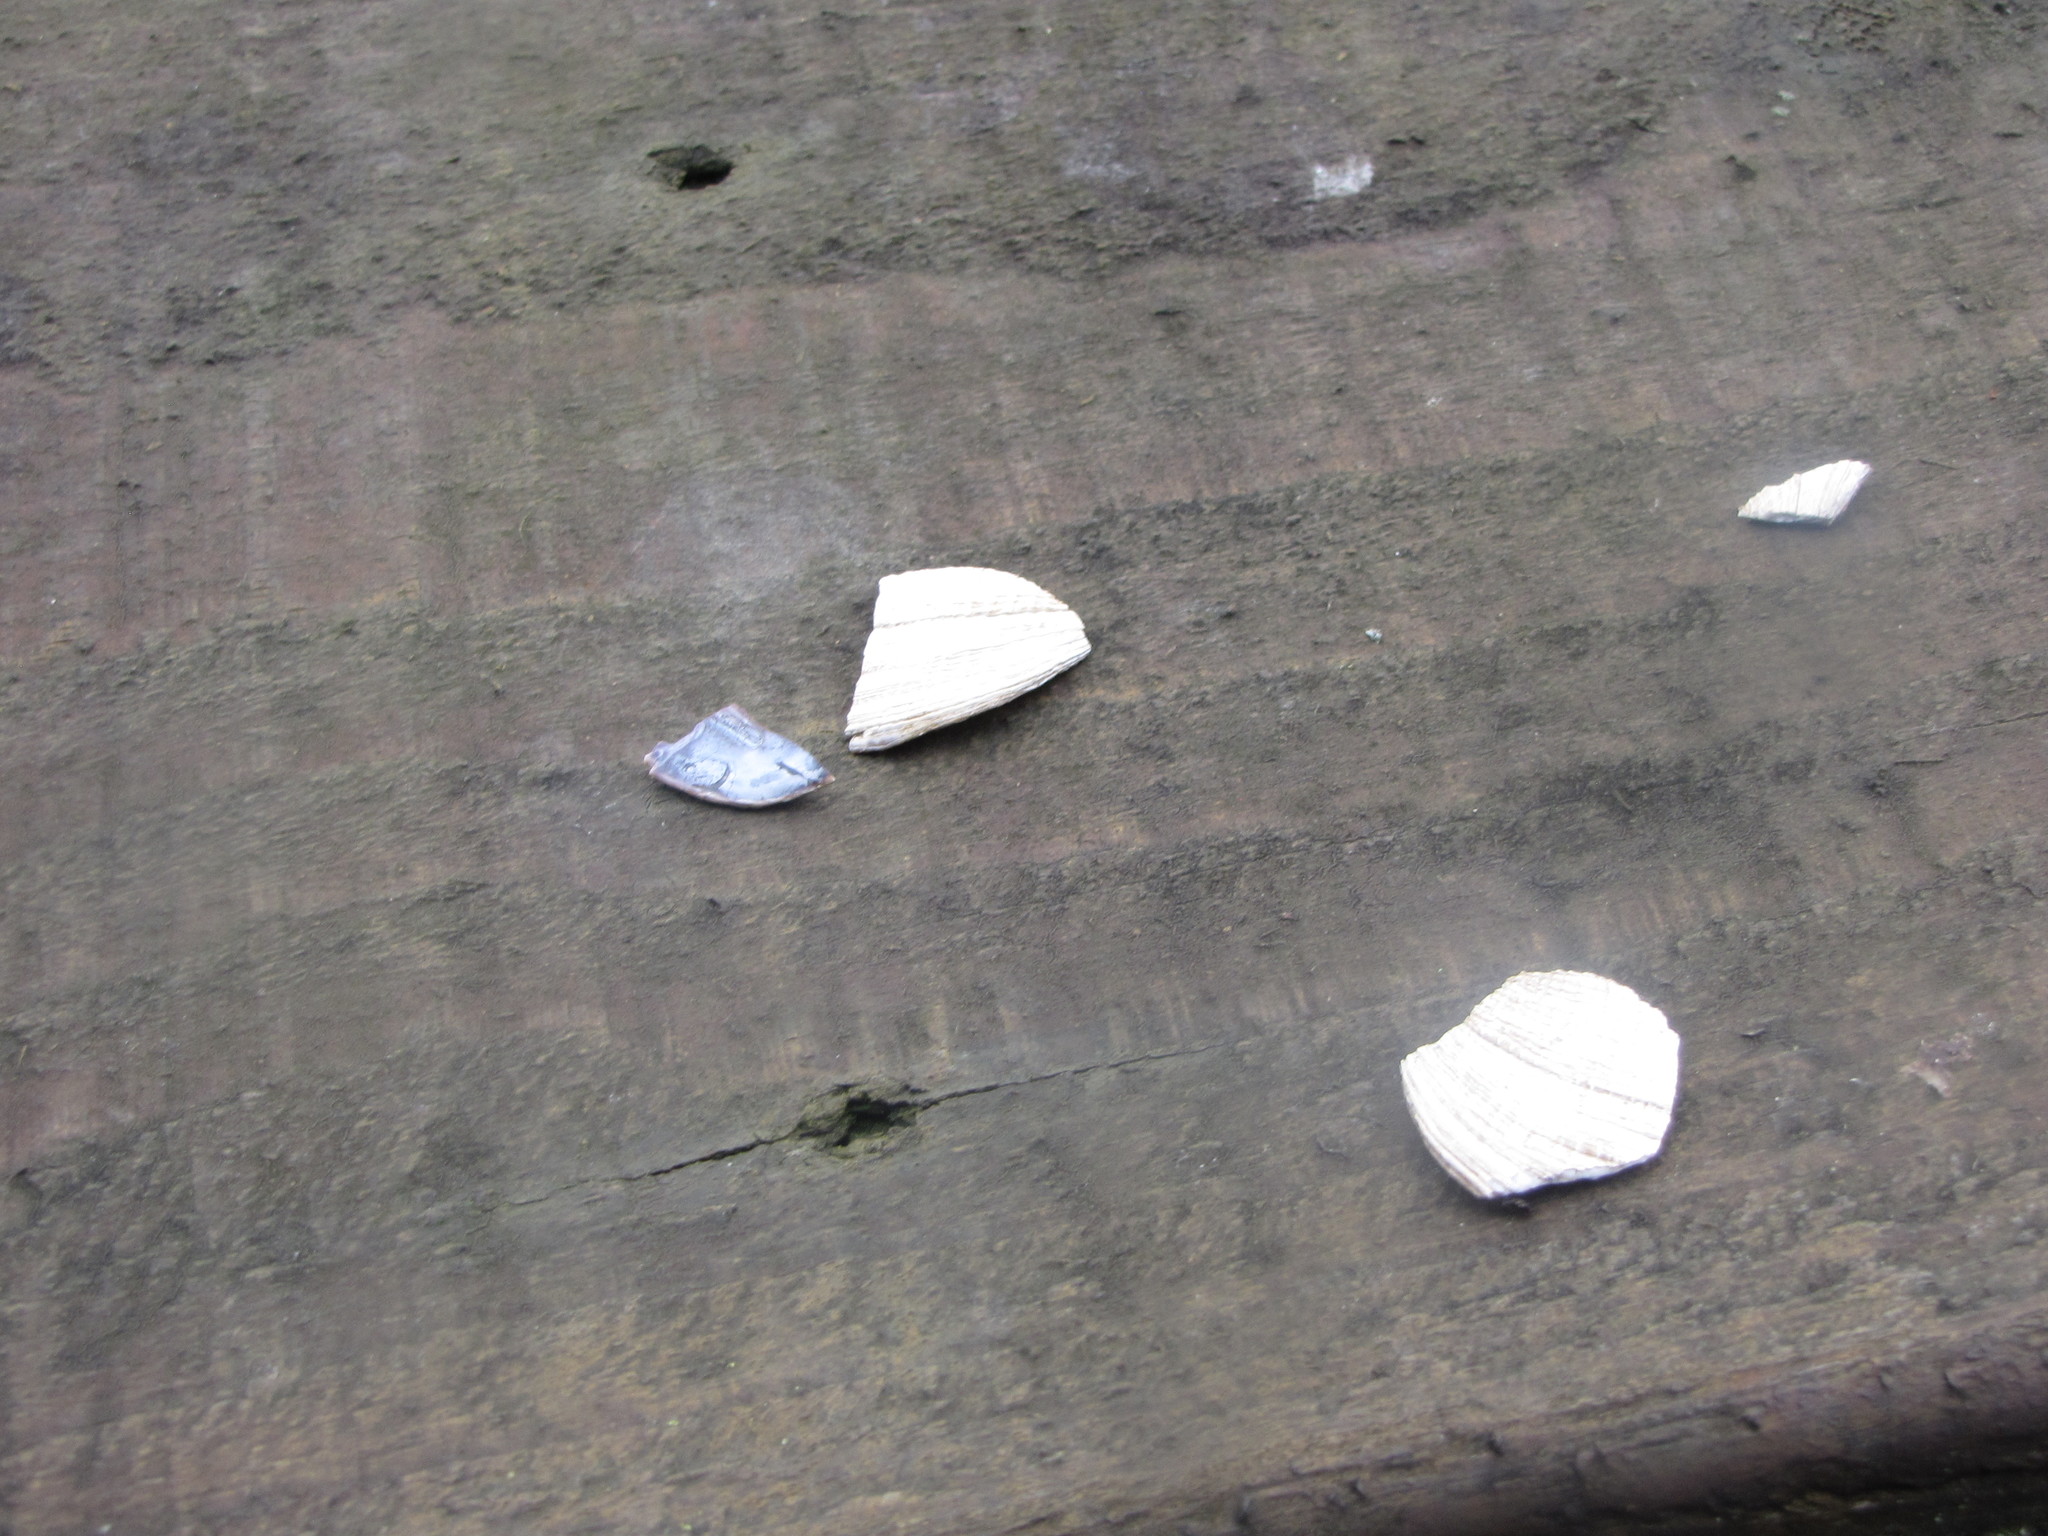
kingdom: Animalia
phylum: Mollusca
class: Bivalvia
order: Cardiida
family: Psammobiidae
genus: Nuttallia
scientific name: Nuttallia obscurata
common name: Purple mahogany-clam
